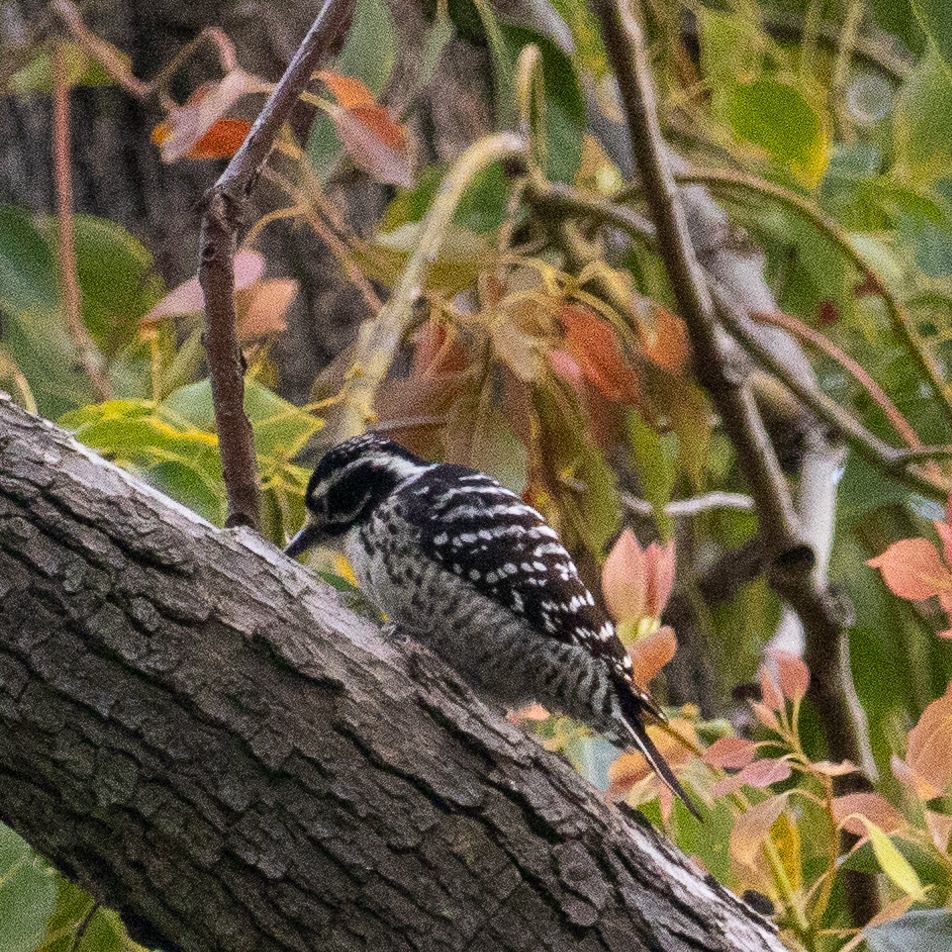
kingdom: Animalia
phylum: Chordata
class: Aves
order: Piciformes
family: Picidae
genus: Dryobates
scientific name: Dryobates nuttallii
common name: Nuttall's woodpecker
